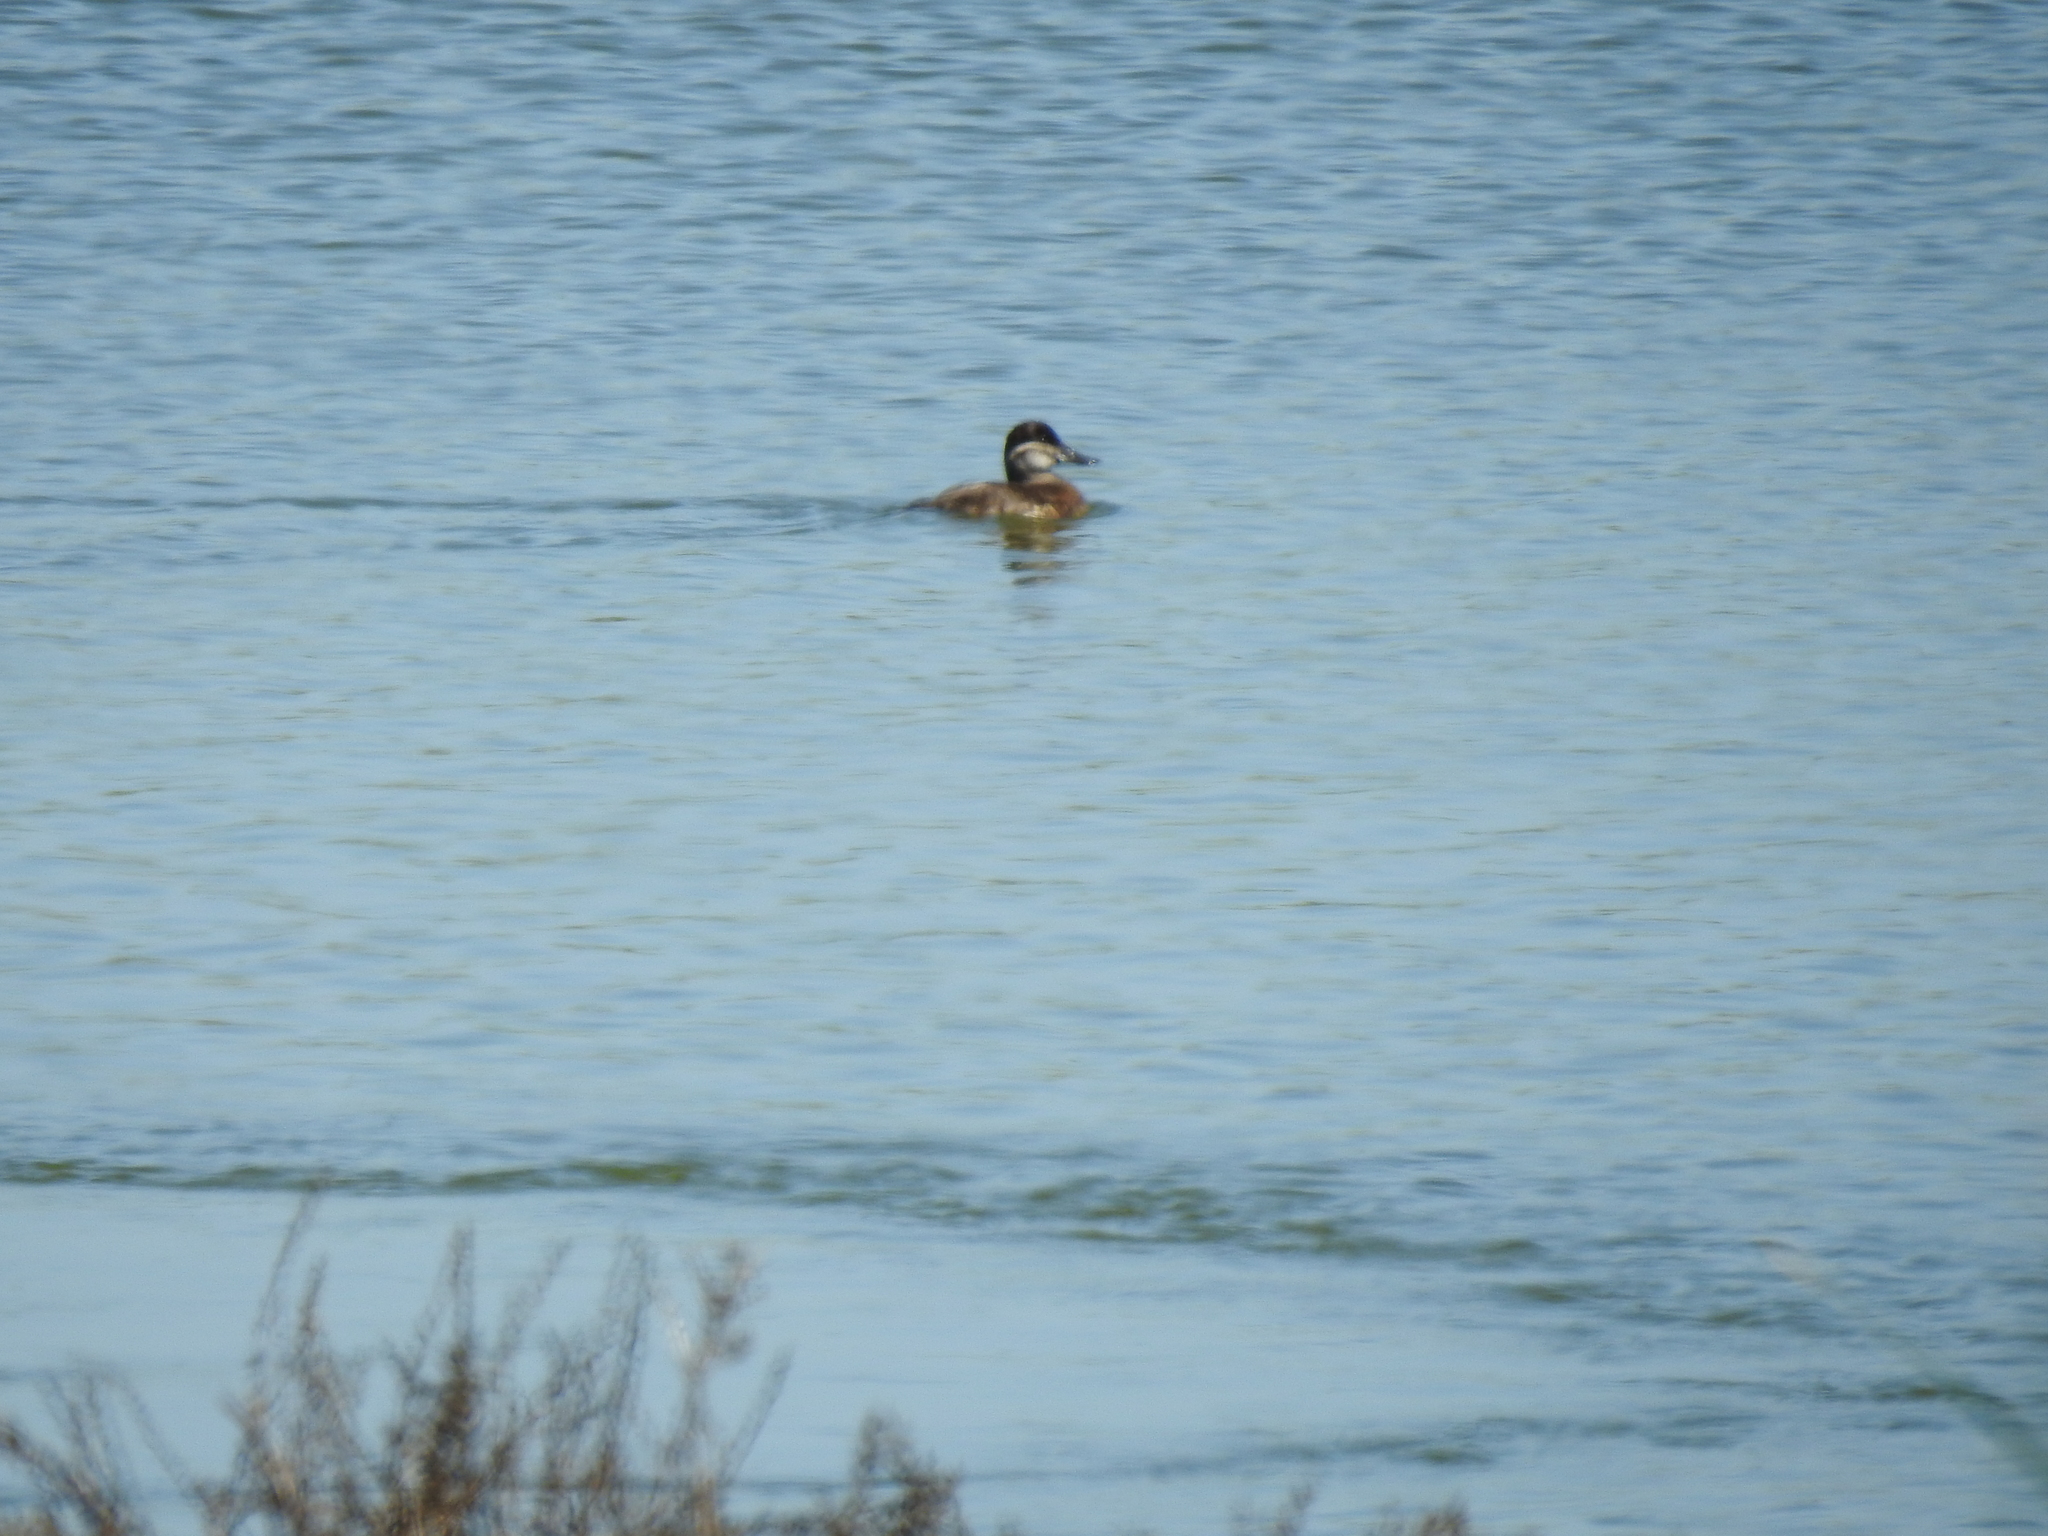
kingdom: Animalia
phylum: Chordata
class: Aves
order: Anseriformes
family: Anatidae
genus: Oxyura
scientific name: Oxyura jamaicensis
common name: Ruddy duck
